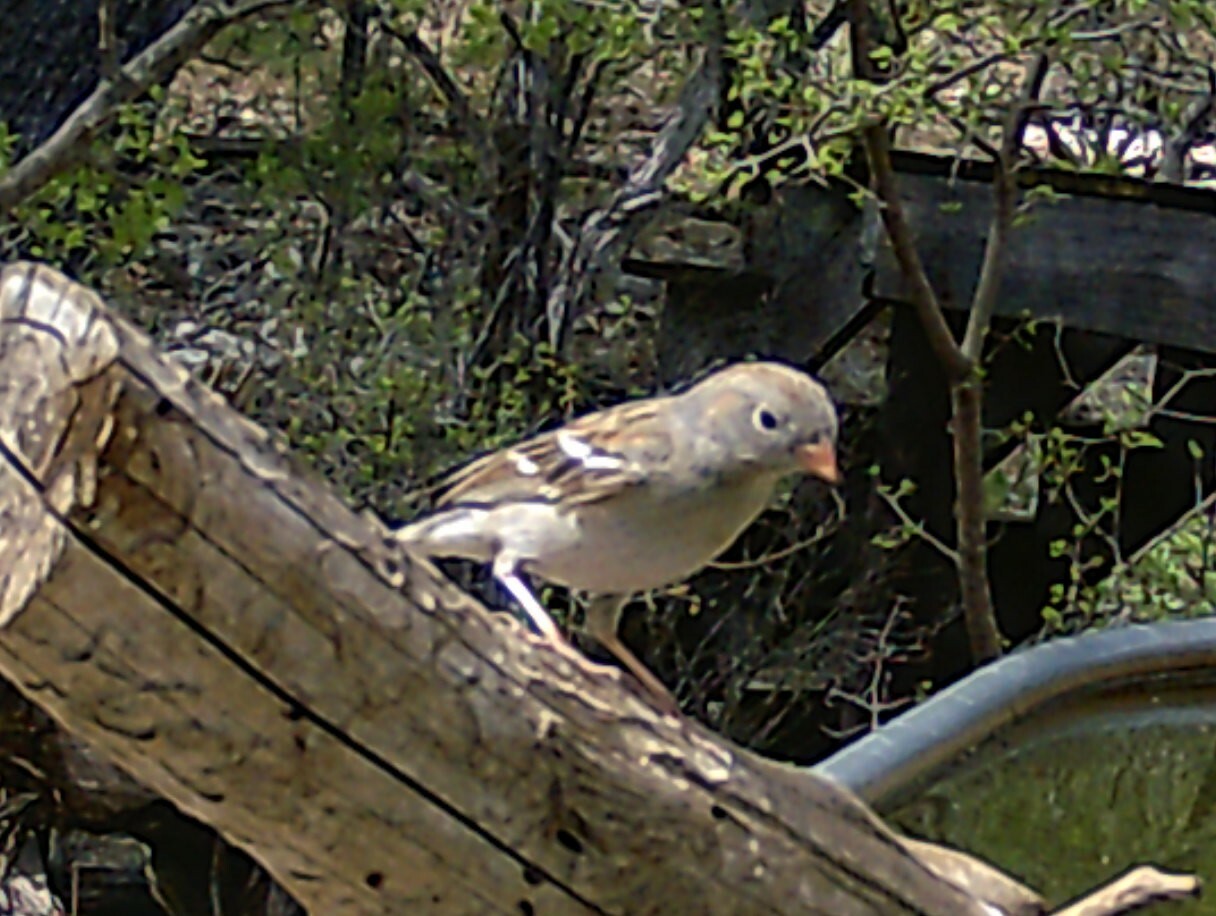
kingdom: Animalia
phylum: Chordata
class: Aves
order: Passeriformes
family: Passerellidae
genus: Spizella
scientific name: Spizella pusilla
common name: Field sparrow
